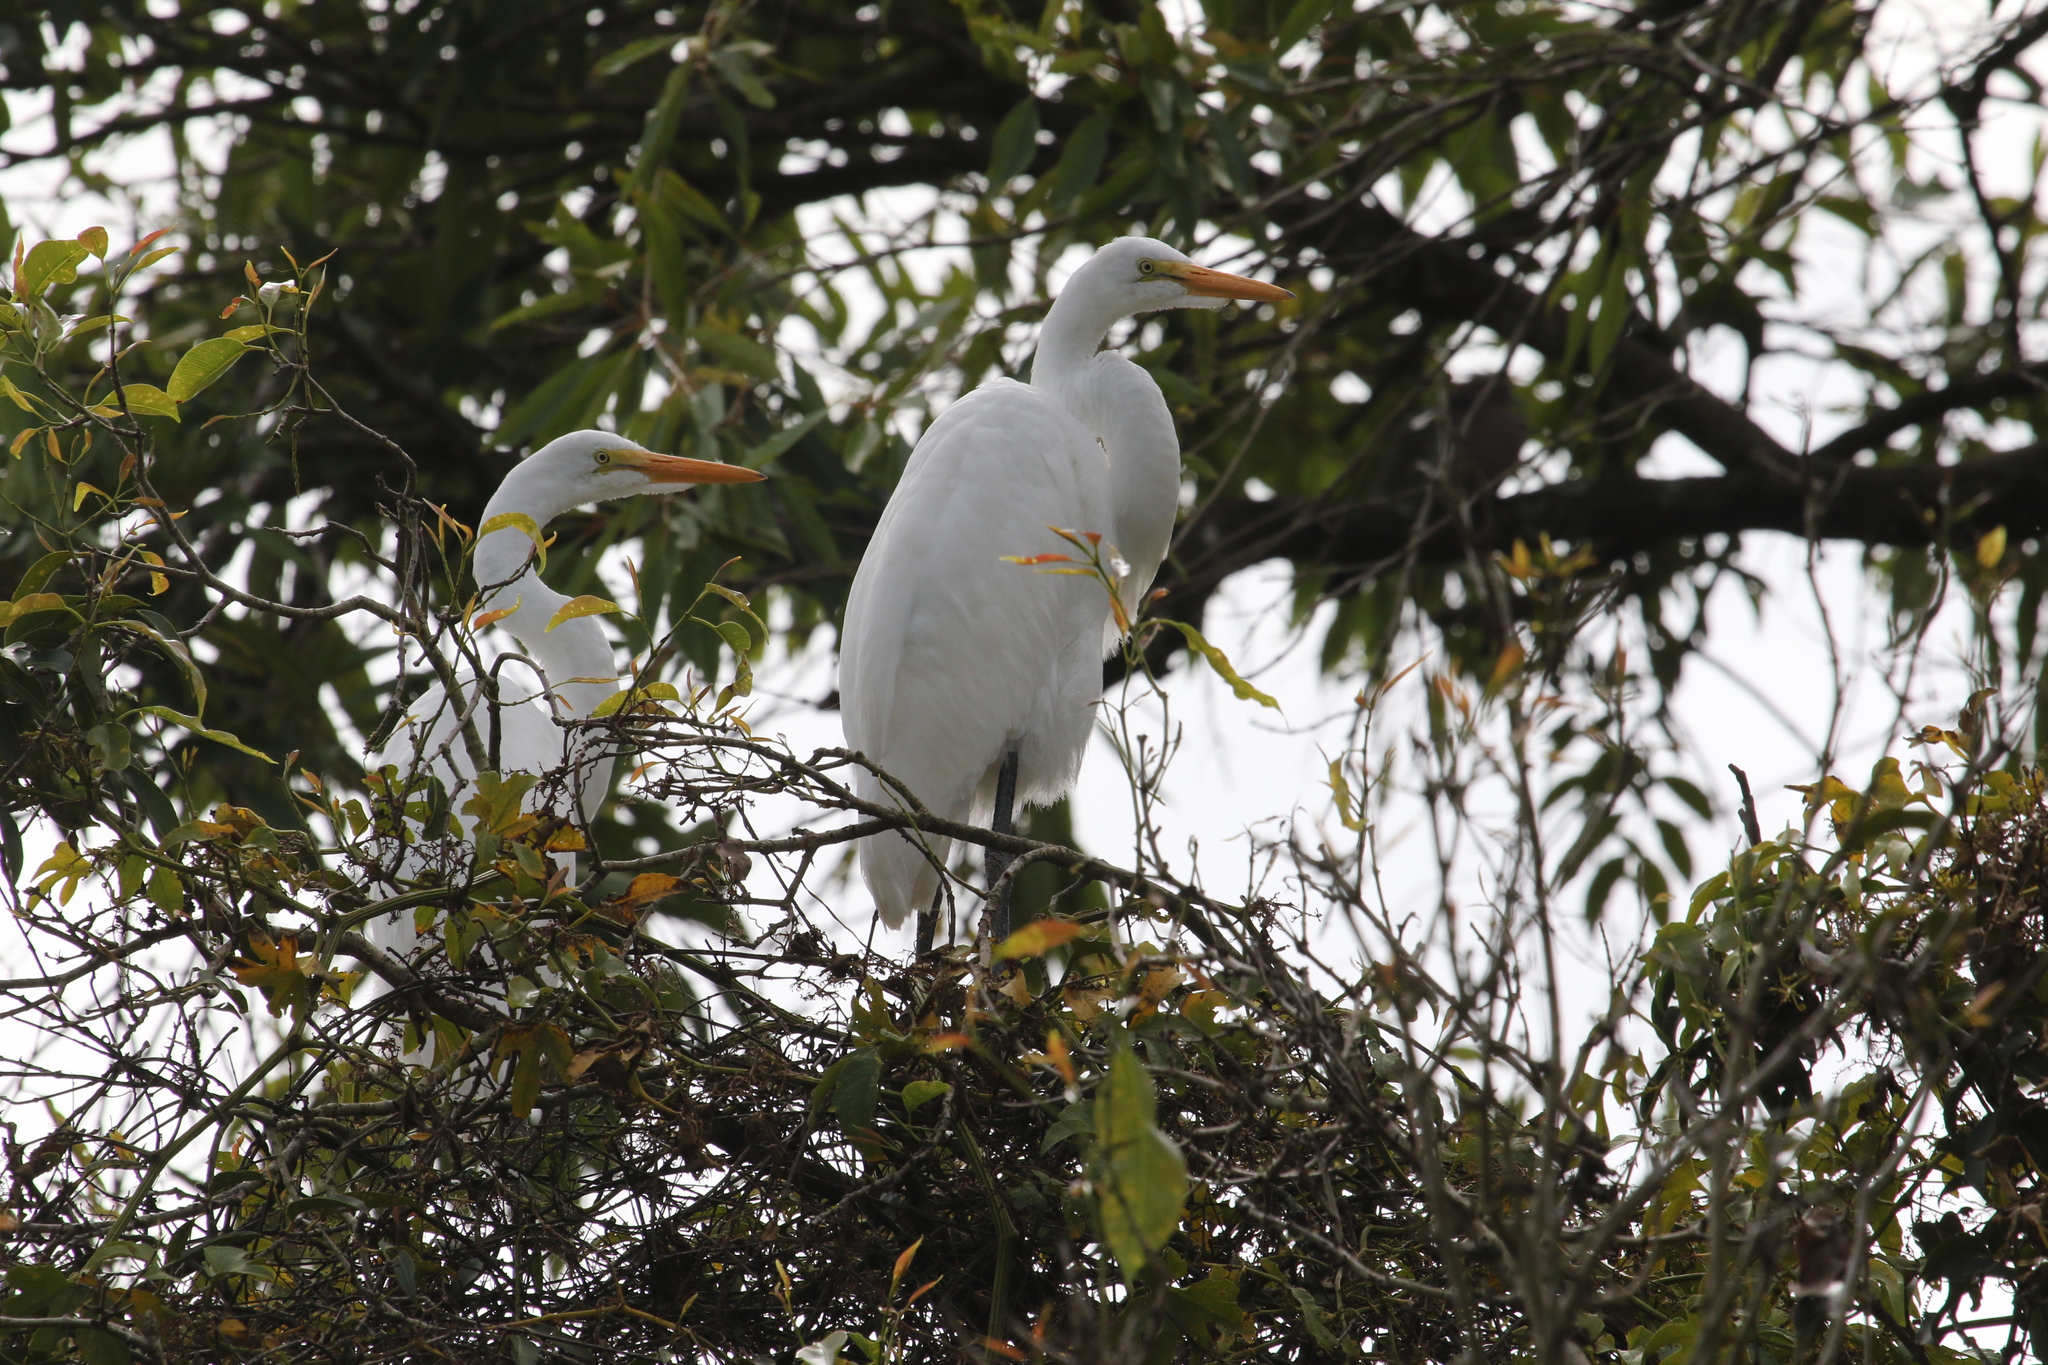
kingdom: Animalia
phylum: Chordata
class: Aves
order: Pelecaniformes
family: Ardeidae
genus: Ardea
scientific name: Ardea alba
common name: Great egret
